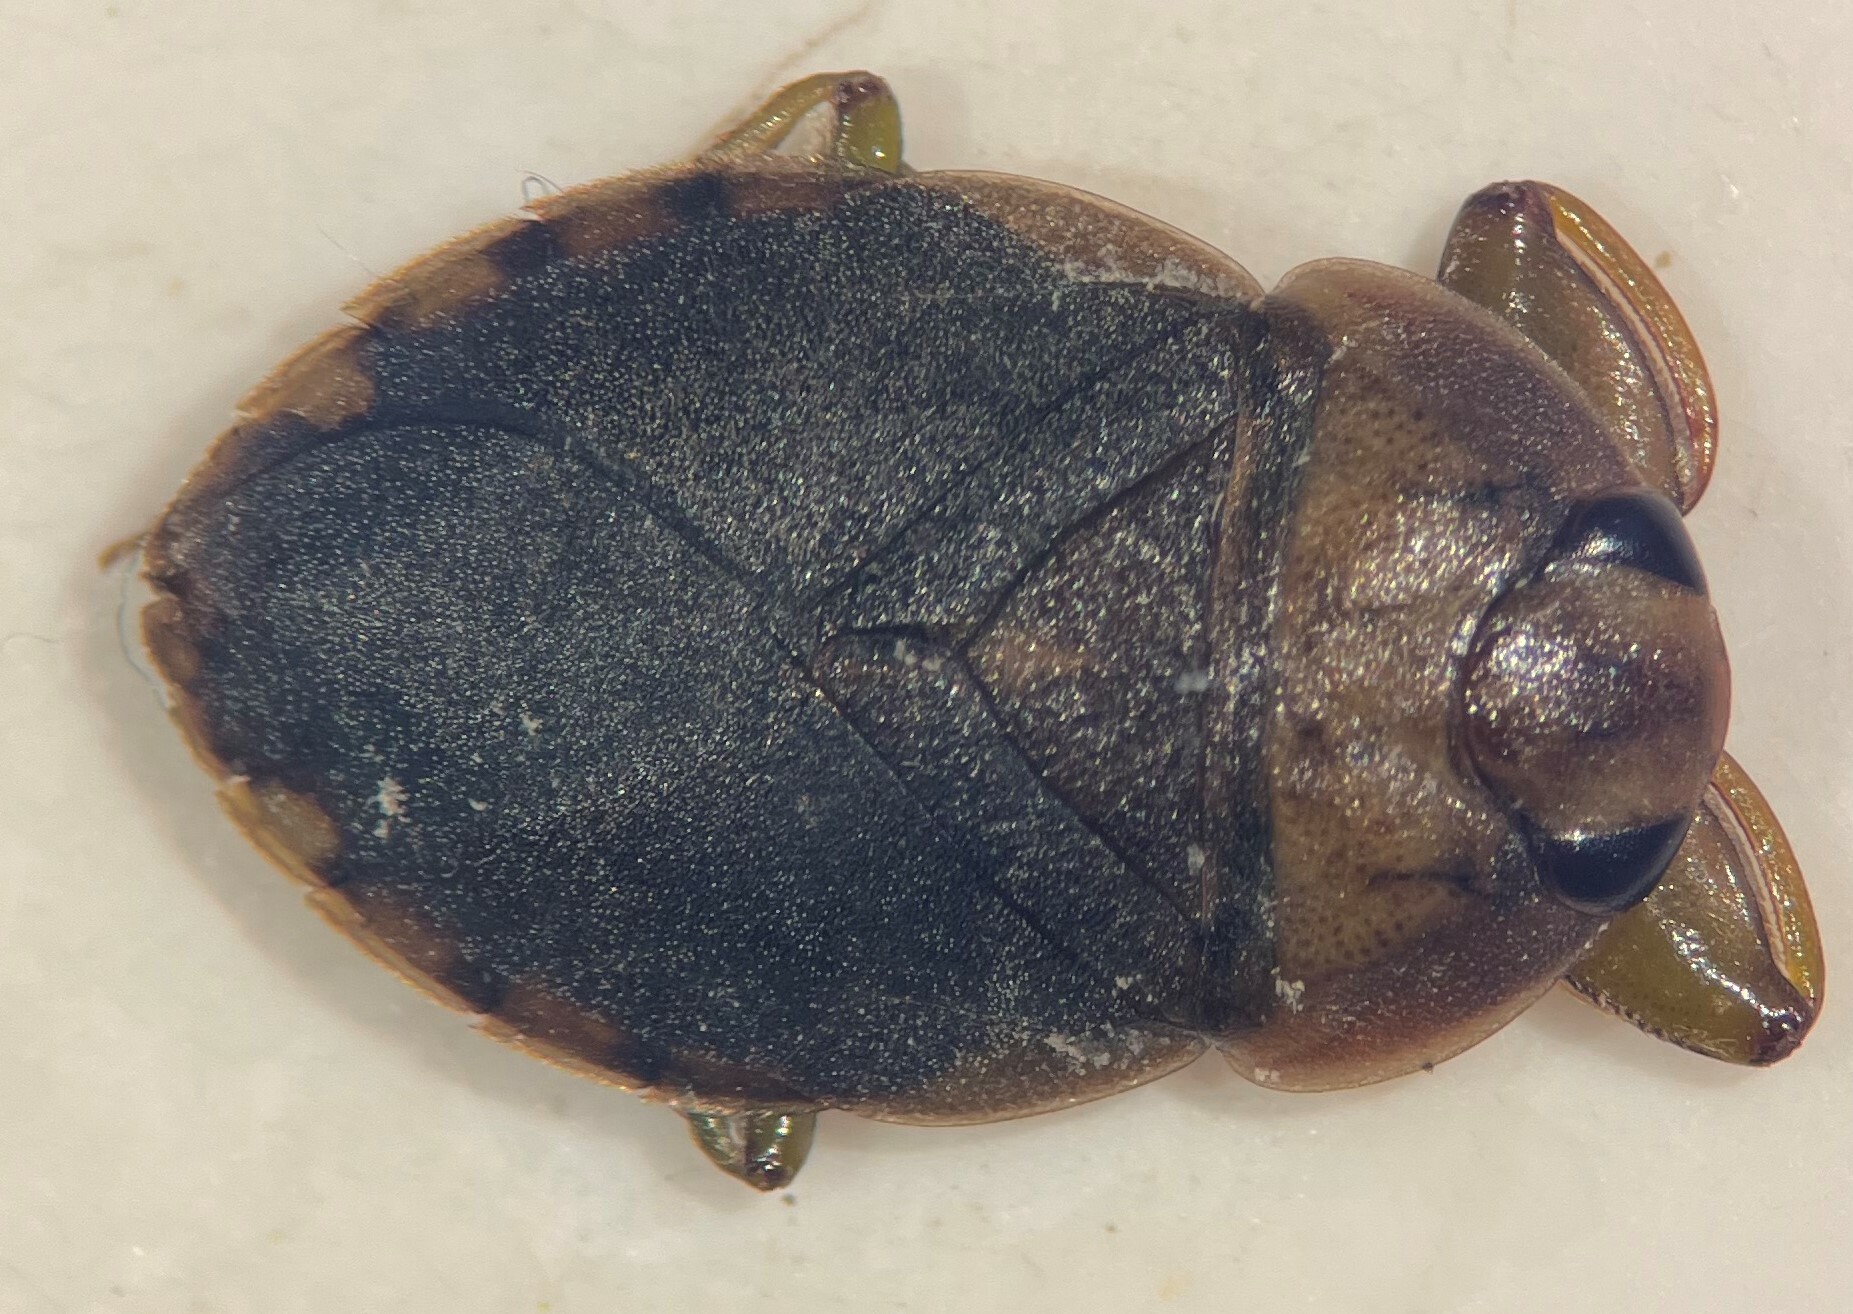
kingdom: Animalia
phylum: Arthropoda
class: Insecta
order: Hemiptera
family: Naucoridae
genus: Ambrysus
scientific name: Ambrysus thermarum
